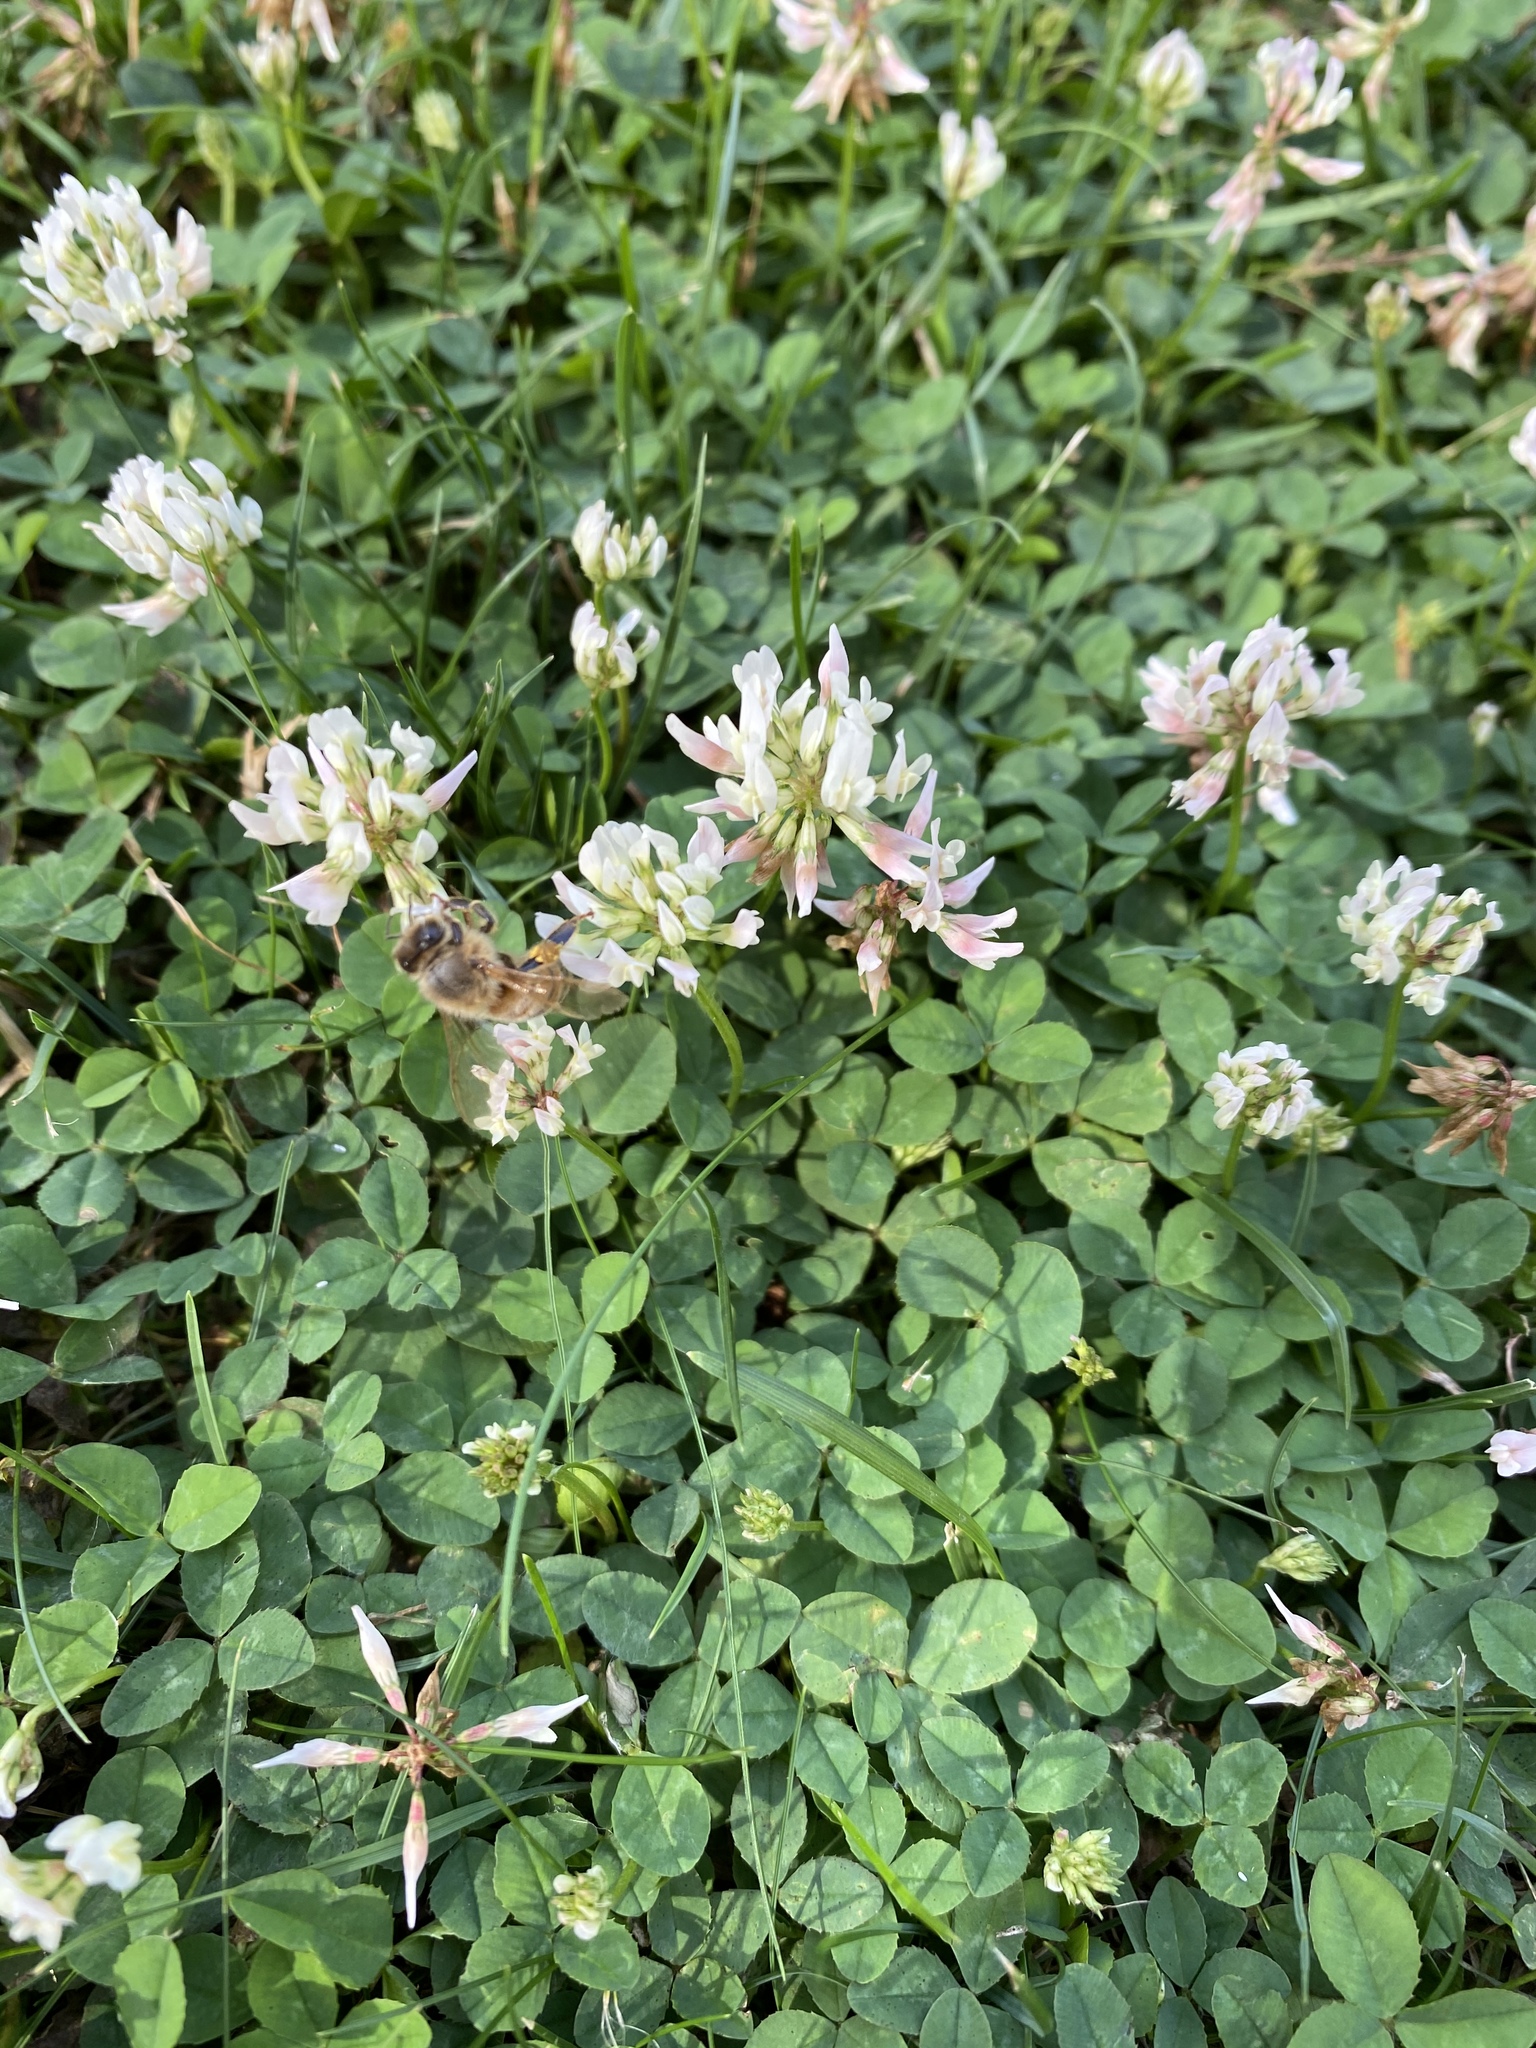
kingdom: Animalia
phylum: Arthropoda
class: Insecta
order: Hymenoptera
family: Apidae
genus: Apis
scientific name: Apis mellifera
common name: Honey bee
